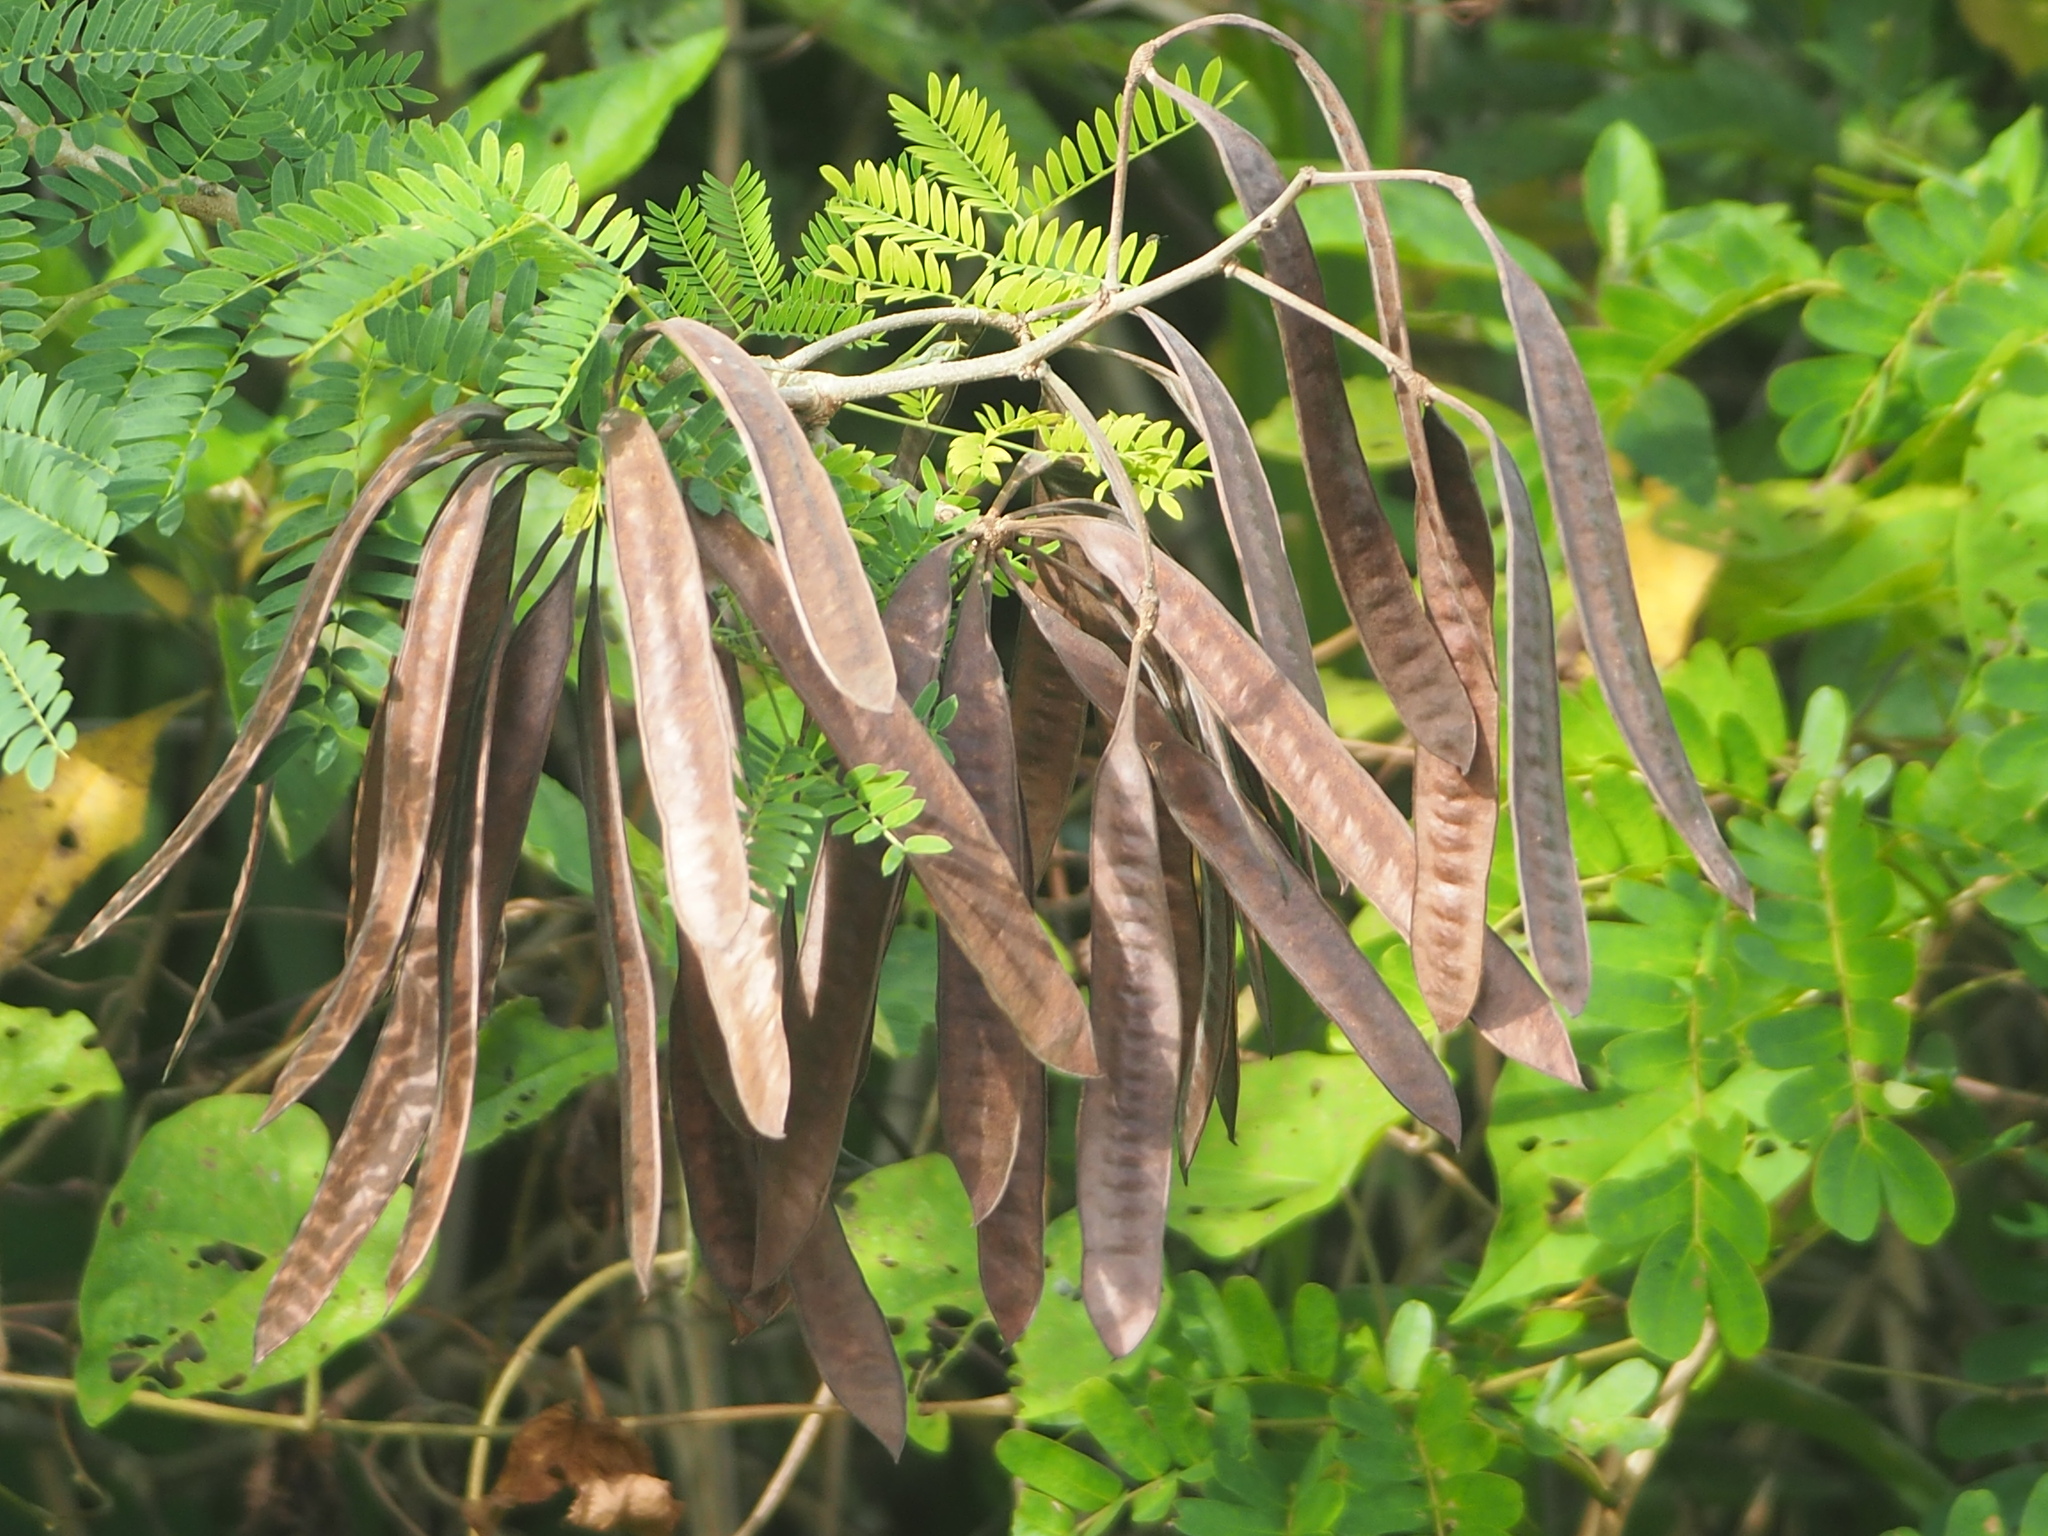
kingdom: Plantae
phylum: Tracheophyta
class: Magnoliopsida
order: Fabales
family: Fabaceae
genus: Leucaena
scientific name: Leucaena leucocephala
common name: White leadtree
